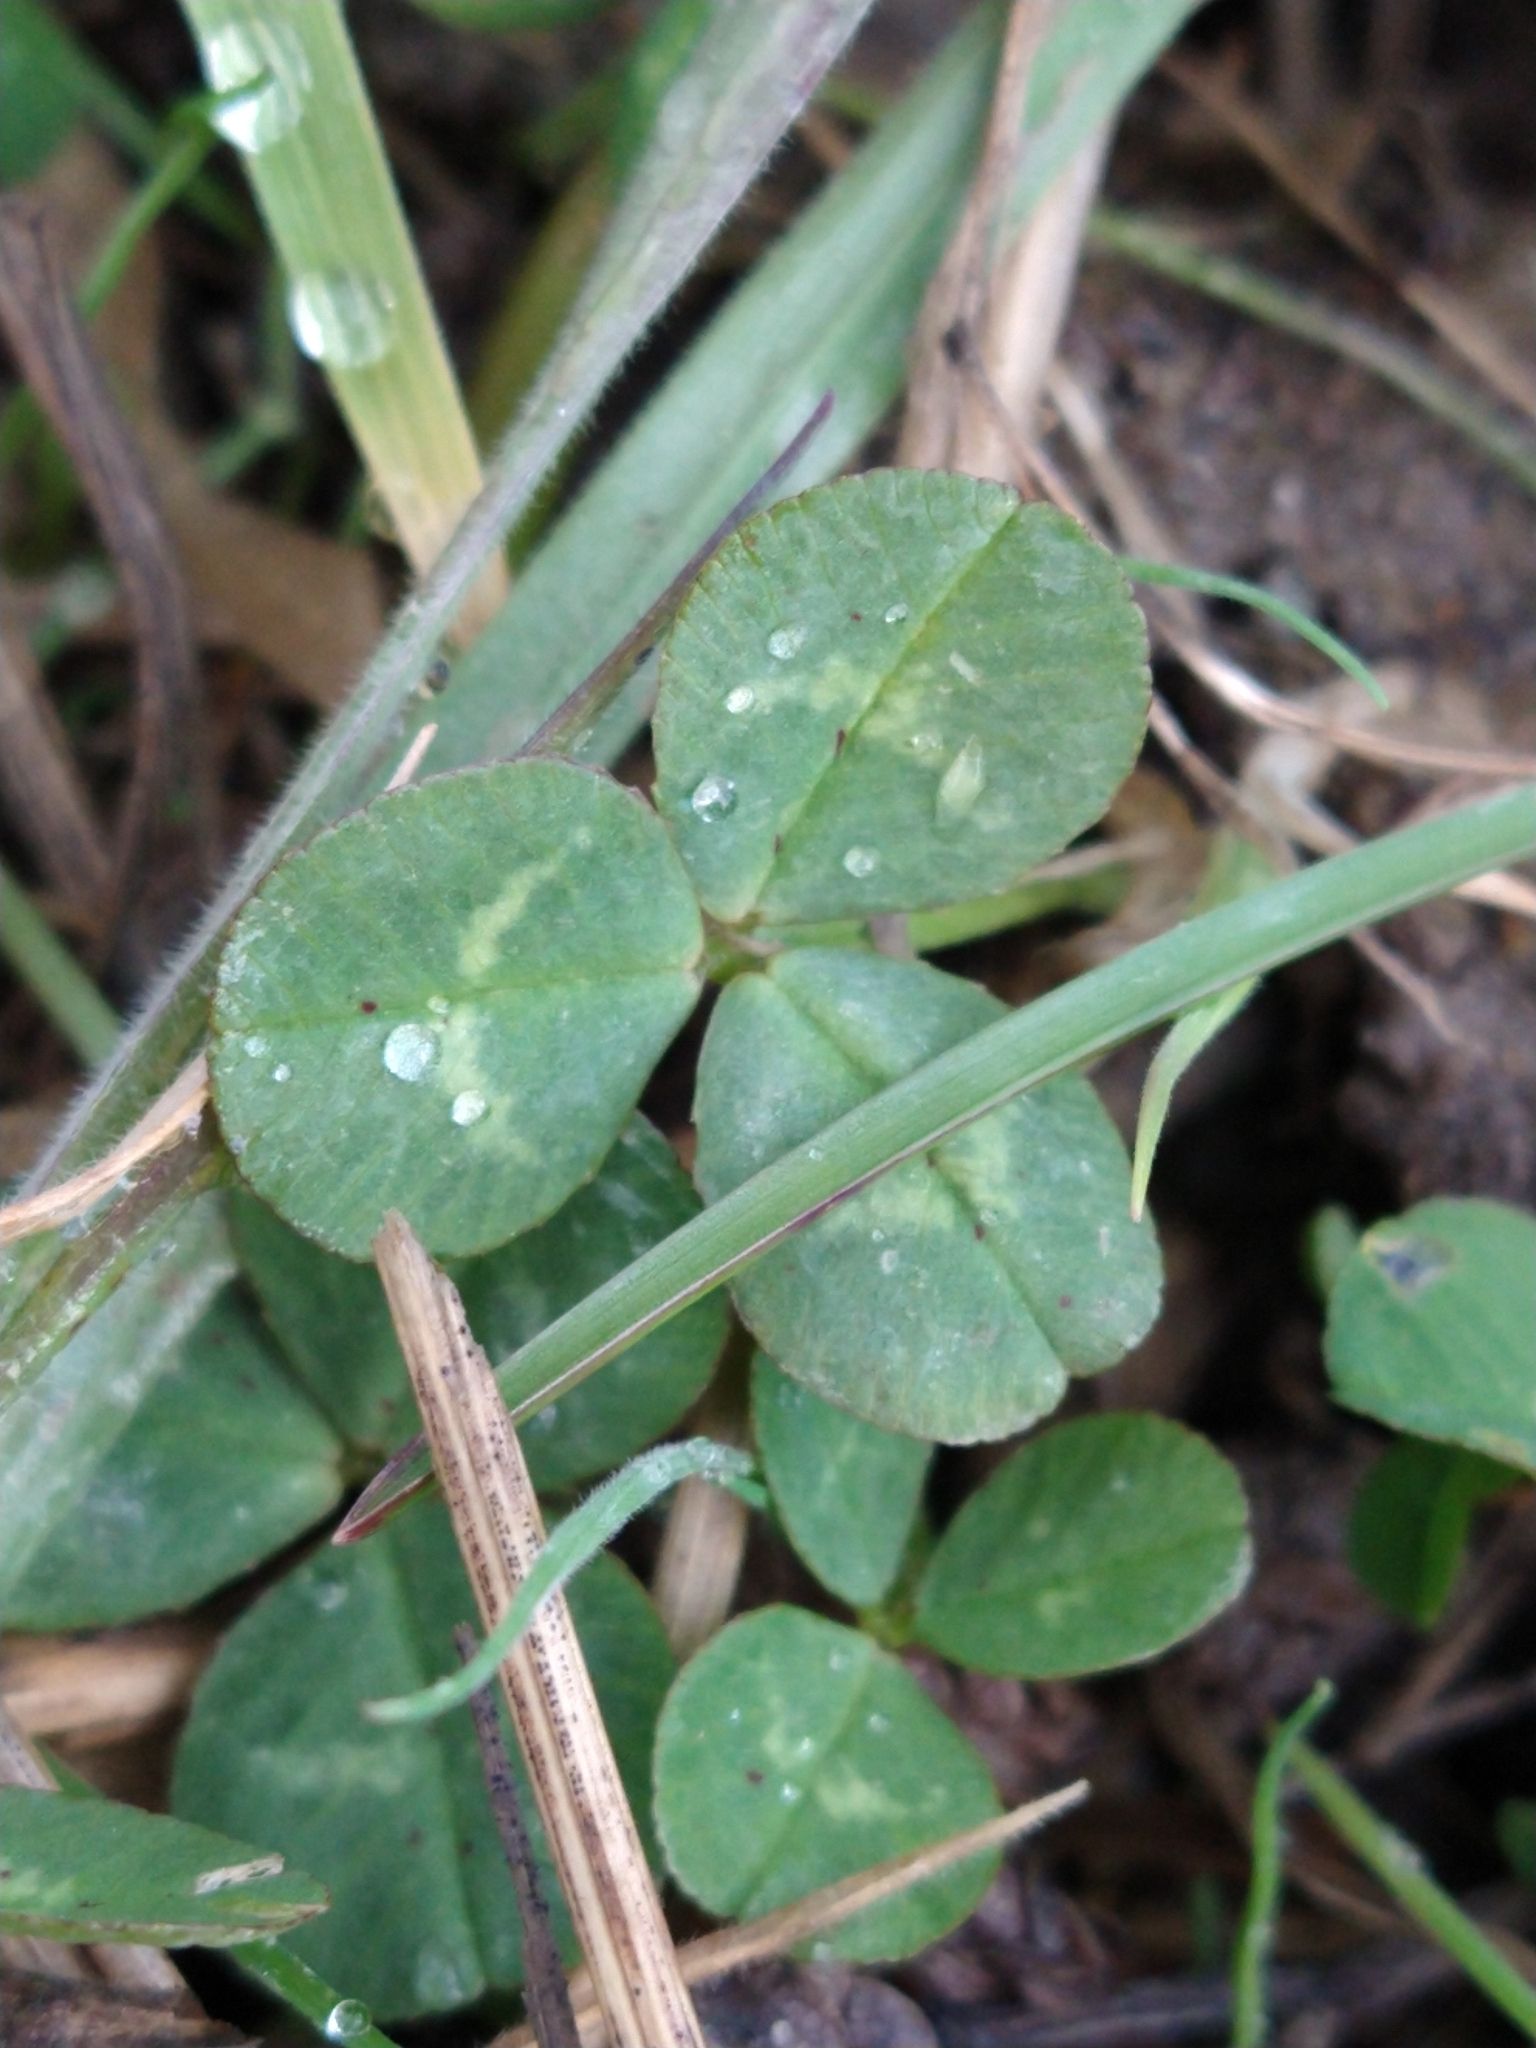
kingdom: Plantae
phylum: Tracheophyta
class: Magnoliopsida
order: Fabales
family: Fabaceae
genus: Trifolium
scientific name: Trifolium repens
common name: White clover
